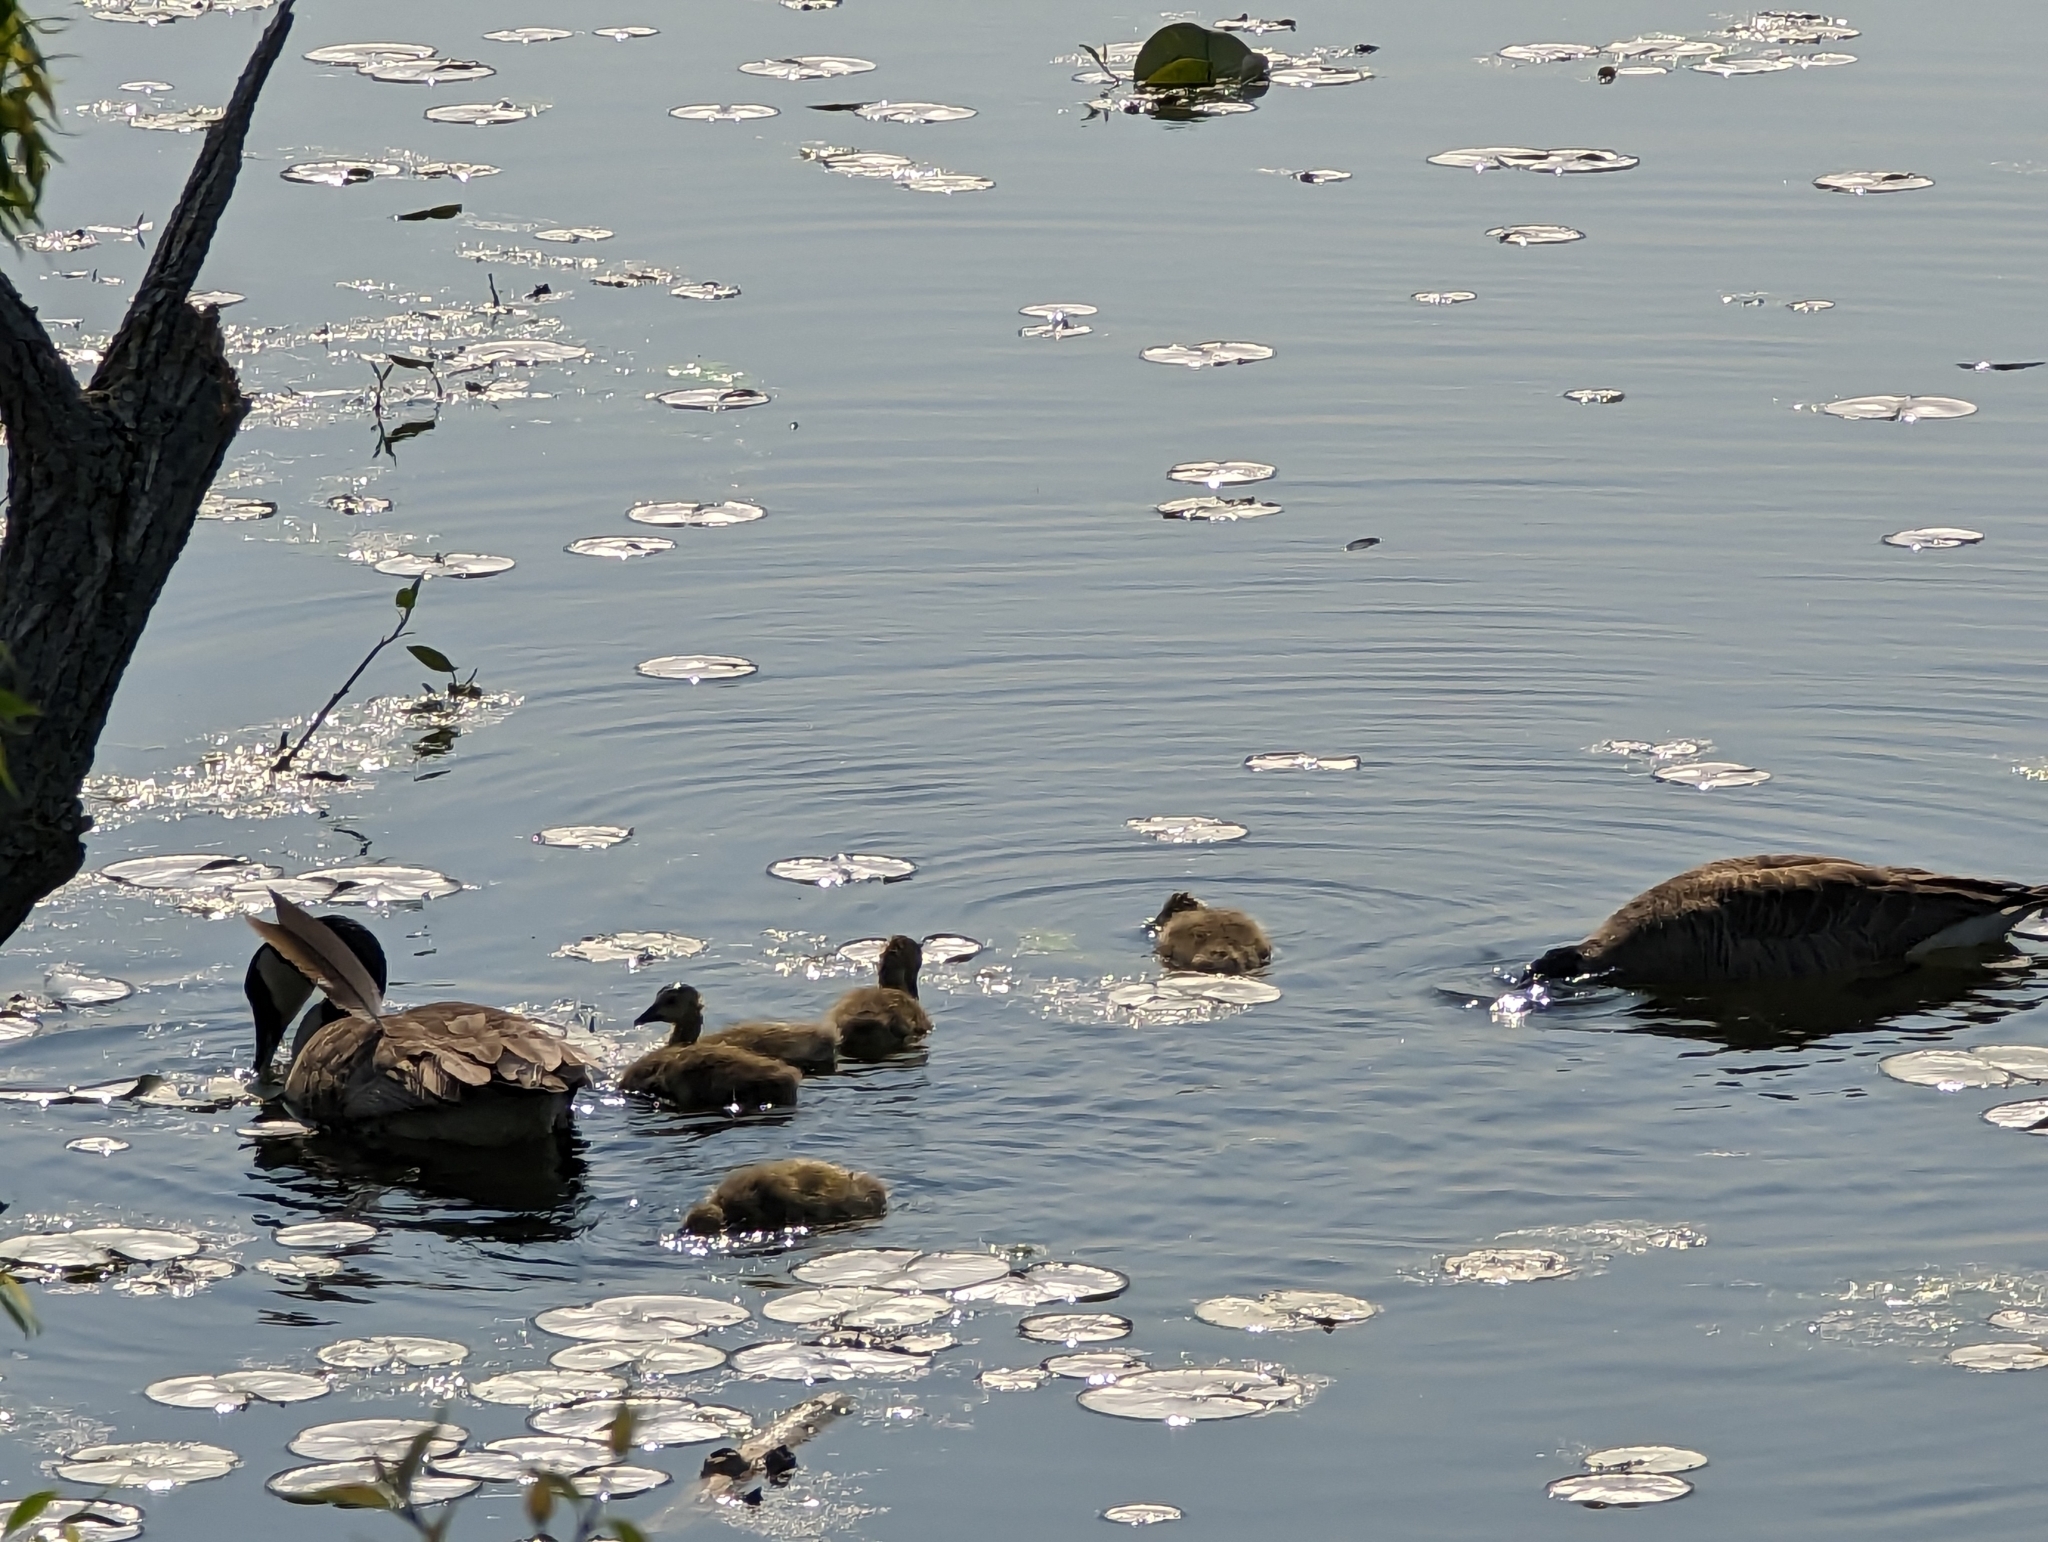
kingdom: Animalia
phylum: Chordata
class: Aves
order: Anseriformes
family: Anatidae
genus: Branta
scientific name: Branta canadensis
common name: Canada goose
